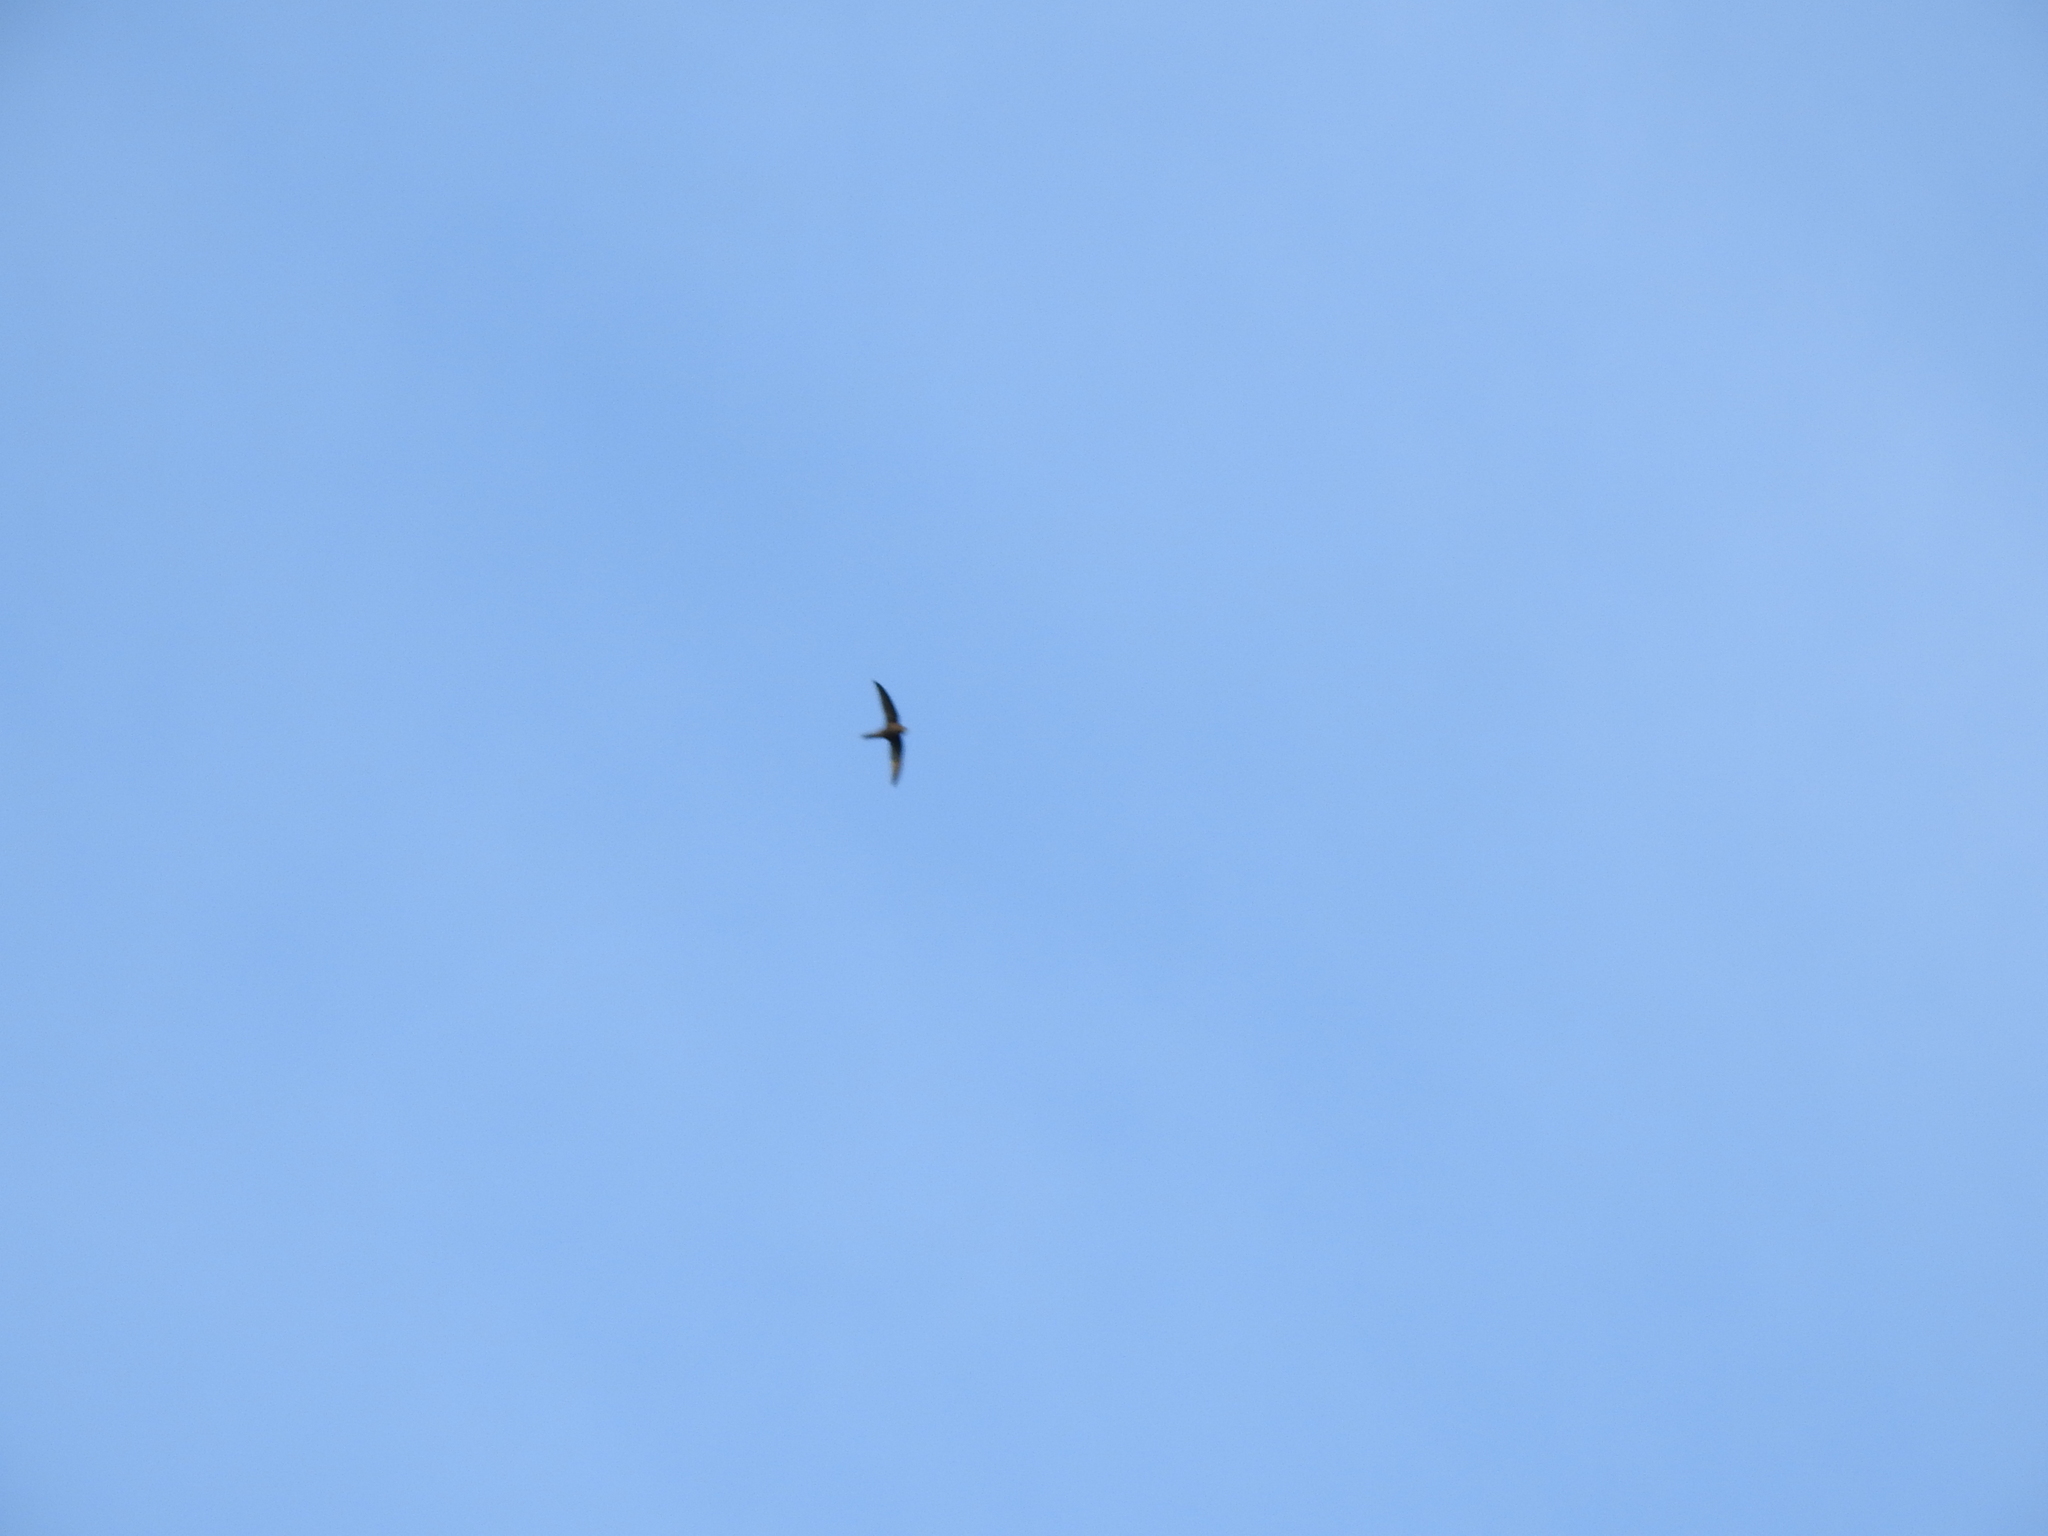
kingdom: Animalia
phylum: Chordata
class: Aves
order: Apodiformes
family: Apodidae
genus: Apus
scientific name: Apus apus
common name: Common swift
